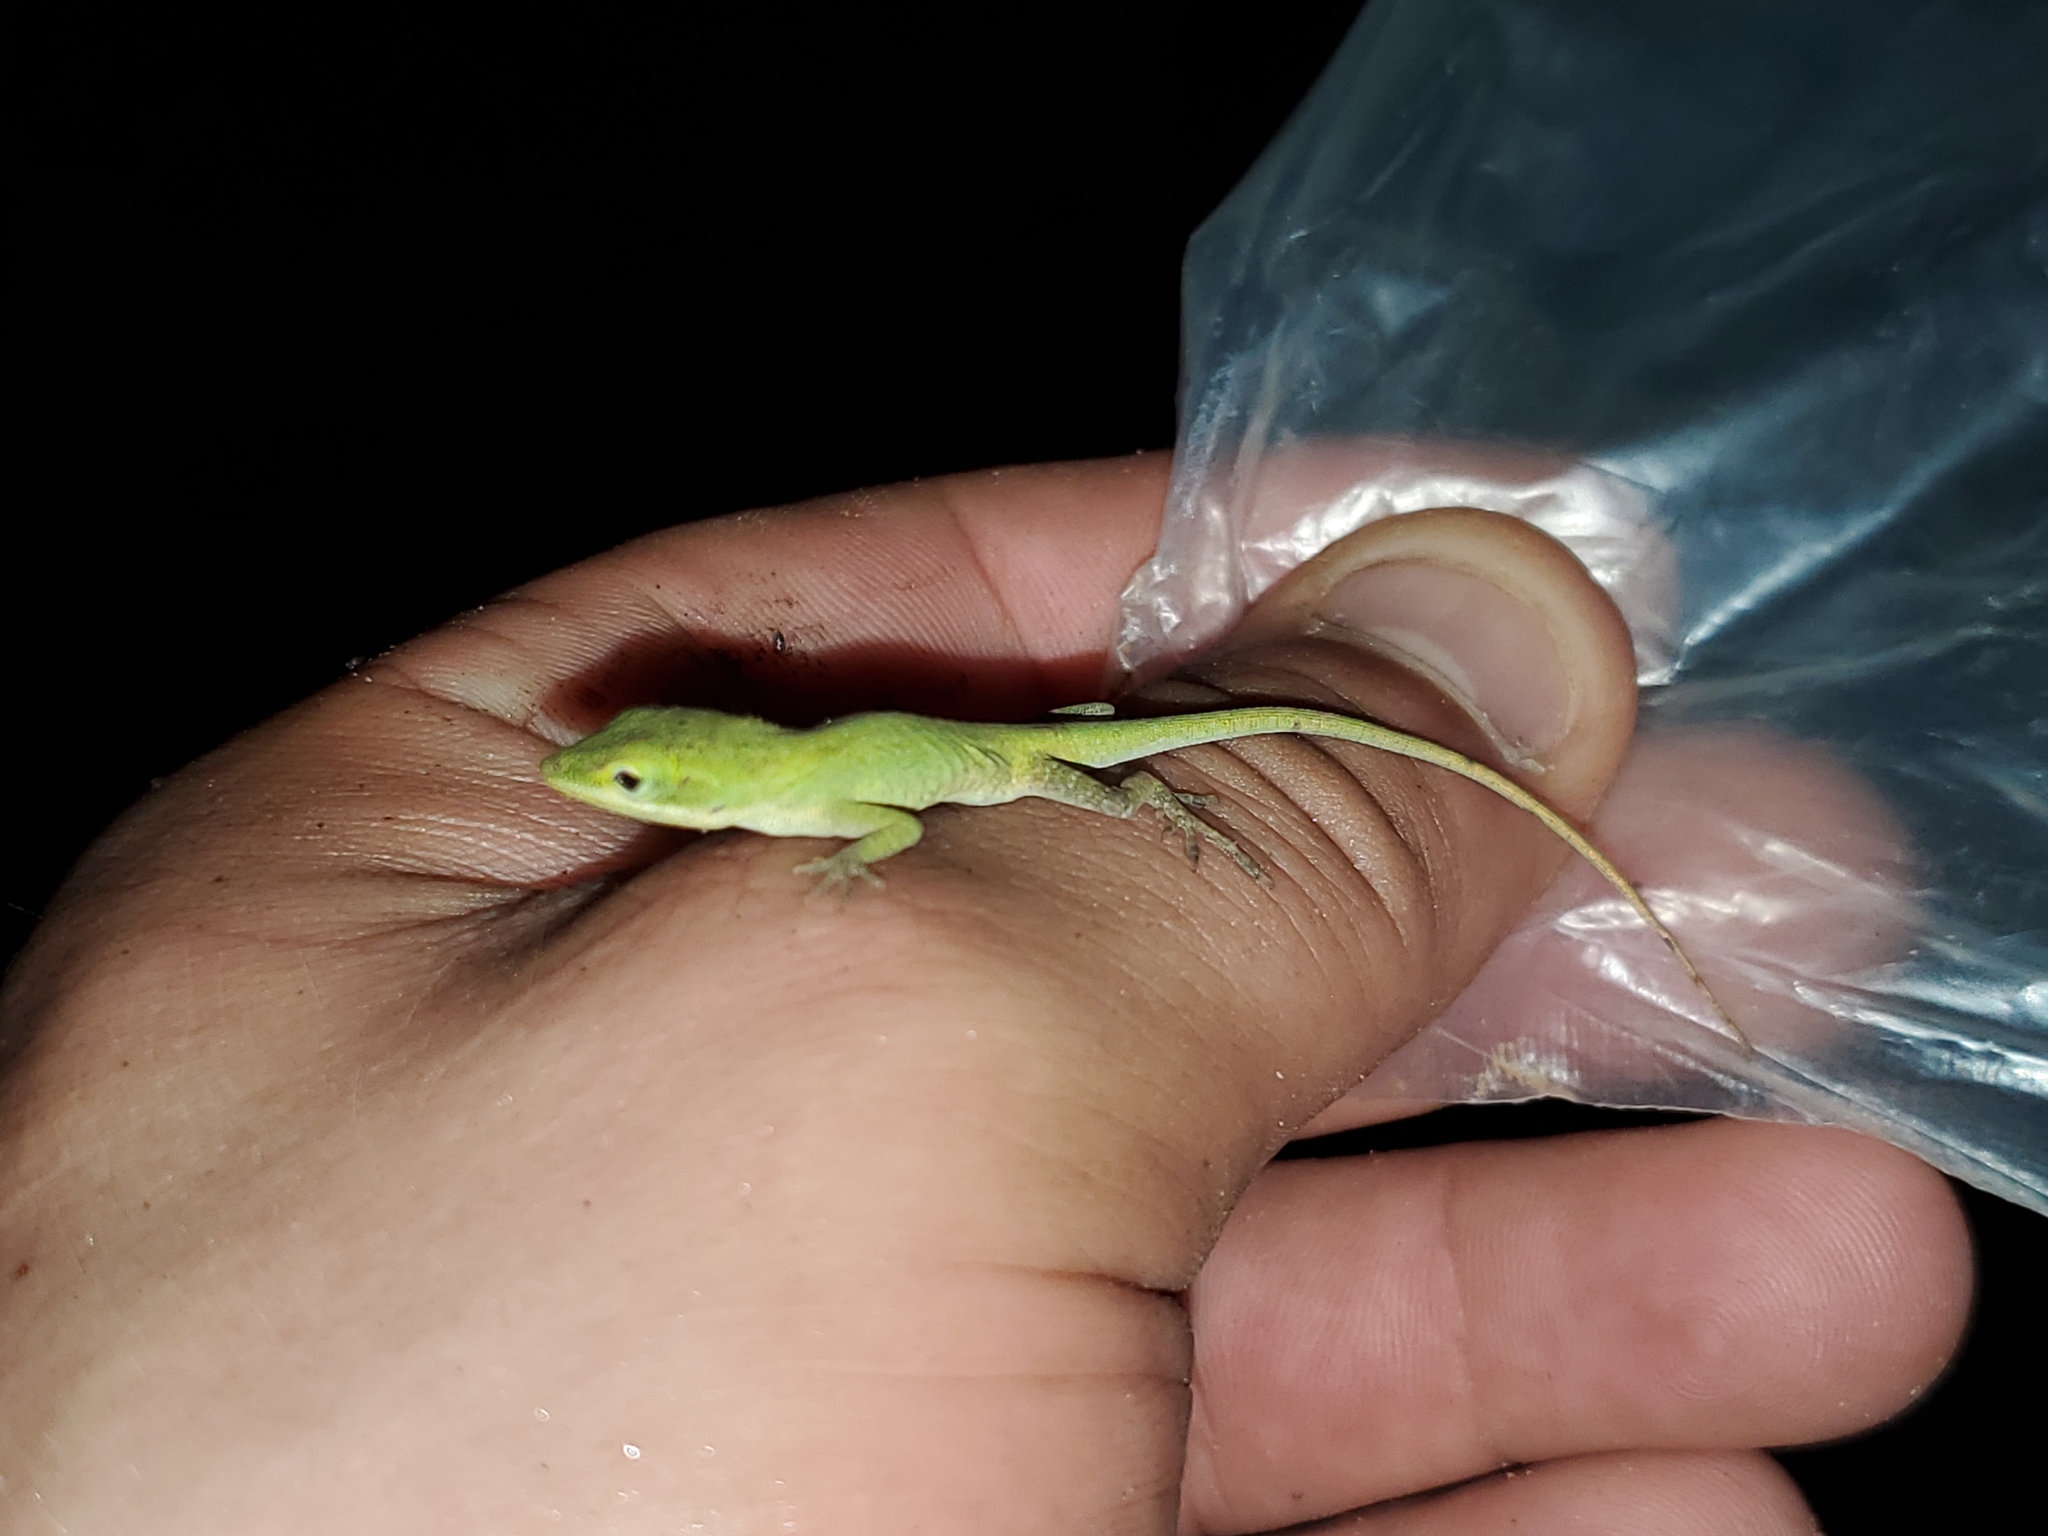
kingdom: Animalia
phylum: Chordata
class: Squamata
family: Dactyloidae
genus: Anolis
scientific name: Anolis carolinensis
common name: Green anole
